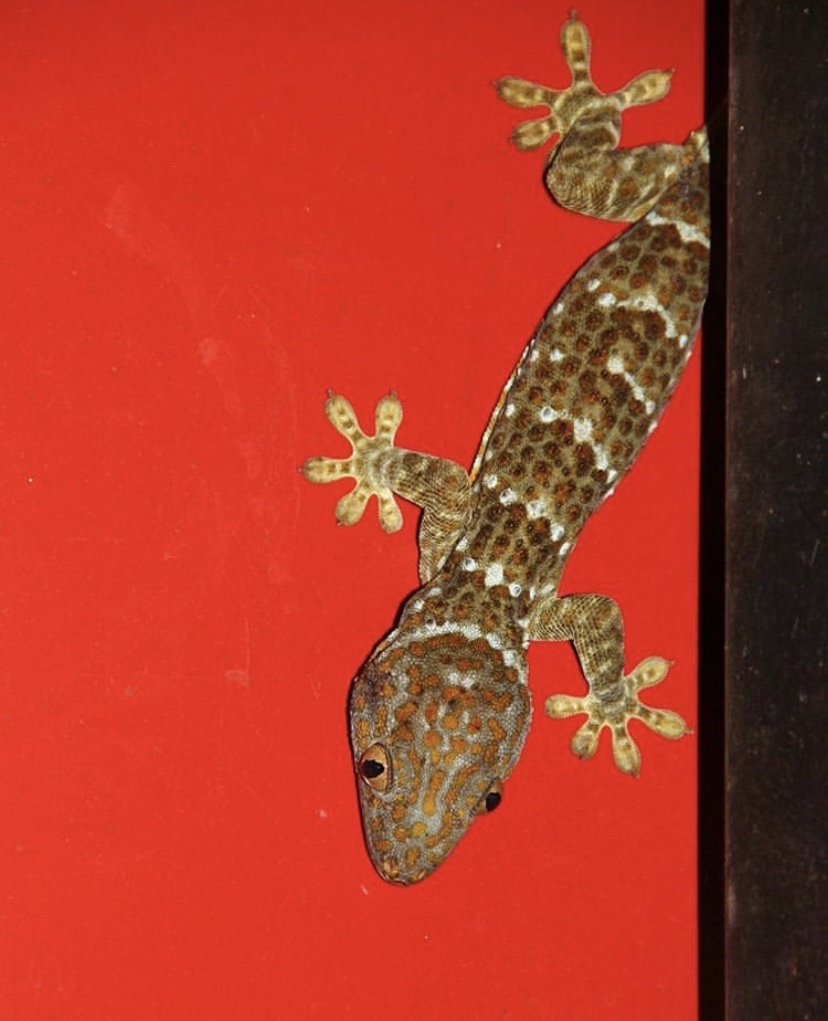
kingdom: Animalia
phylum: Chordata
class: Squamata
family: Gekkonidae
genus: Gekko
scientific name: Gekko gecko
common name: Tokay gecko
